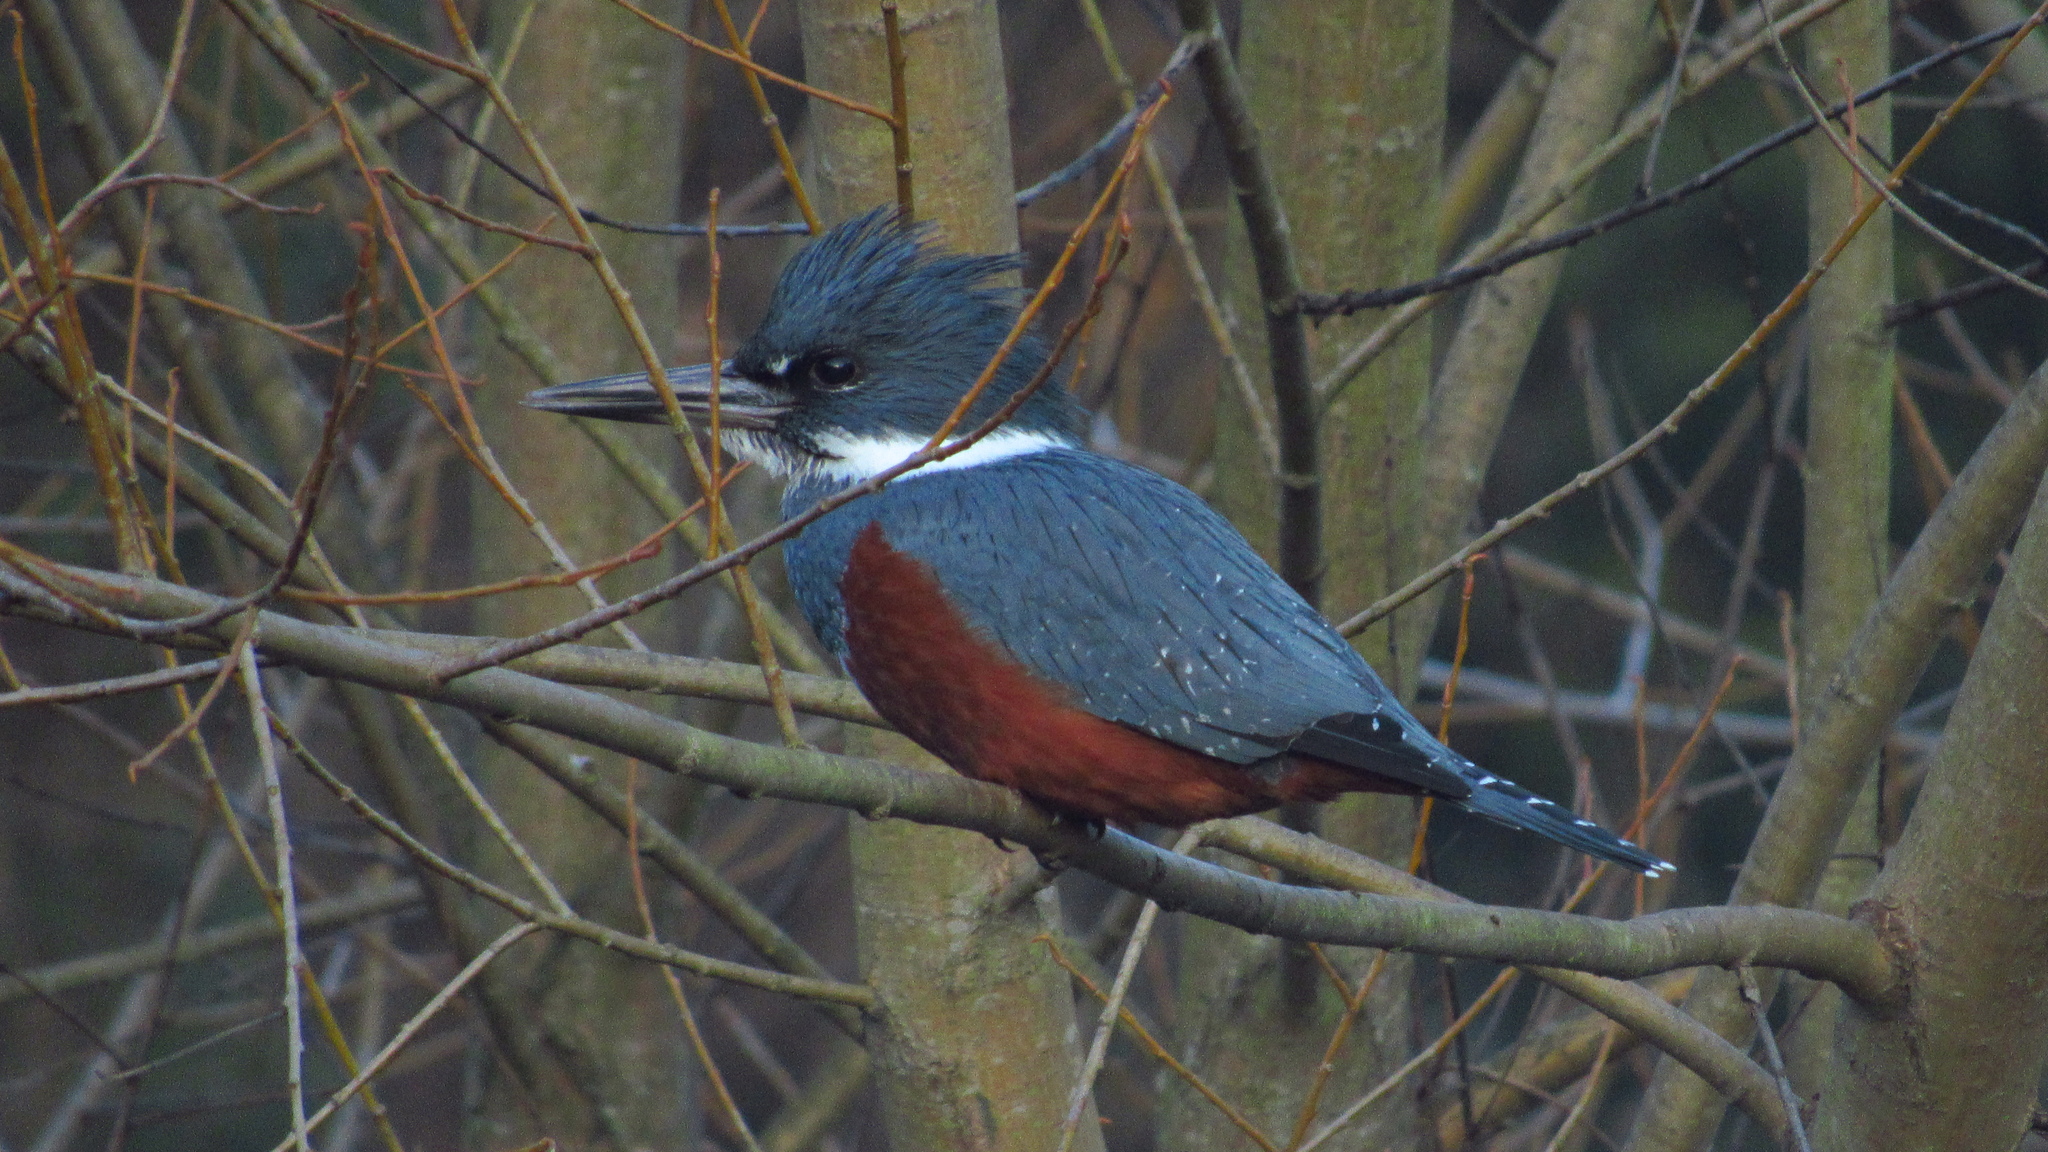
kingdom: Animalia
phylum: Chordata
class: Aves
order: Coraciiformes
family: Alcedinidae
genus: Megaceryle
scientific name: Megaceryle torquata
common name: Ringed kingfisher
